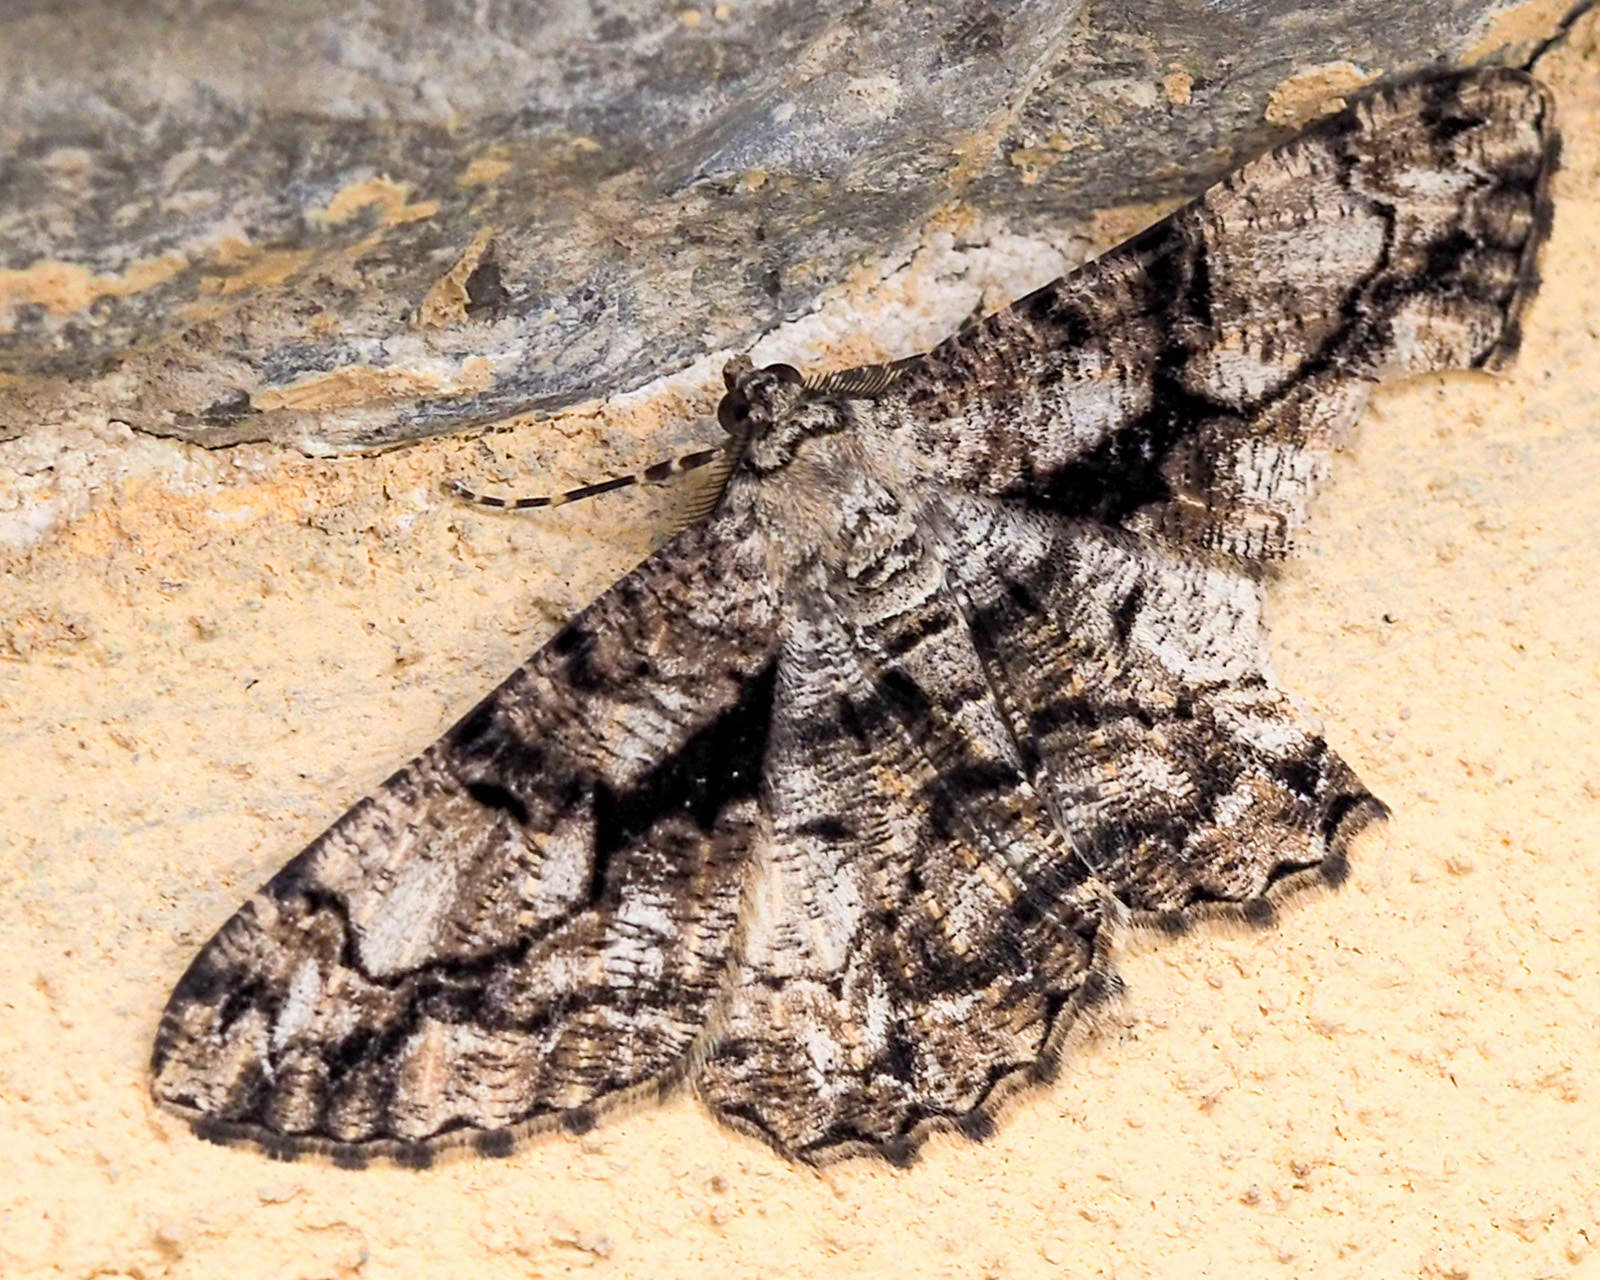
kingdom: Animalia
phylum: Arthropoda
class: Insecta
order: Lepidoptera
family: Geometridae
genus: Peribatodes
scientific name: Peribatodes umbraria
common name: Olive-tree beauty
